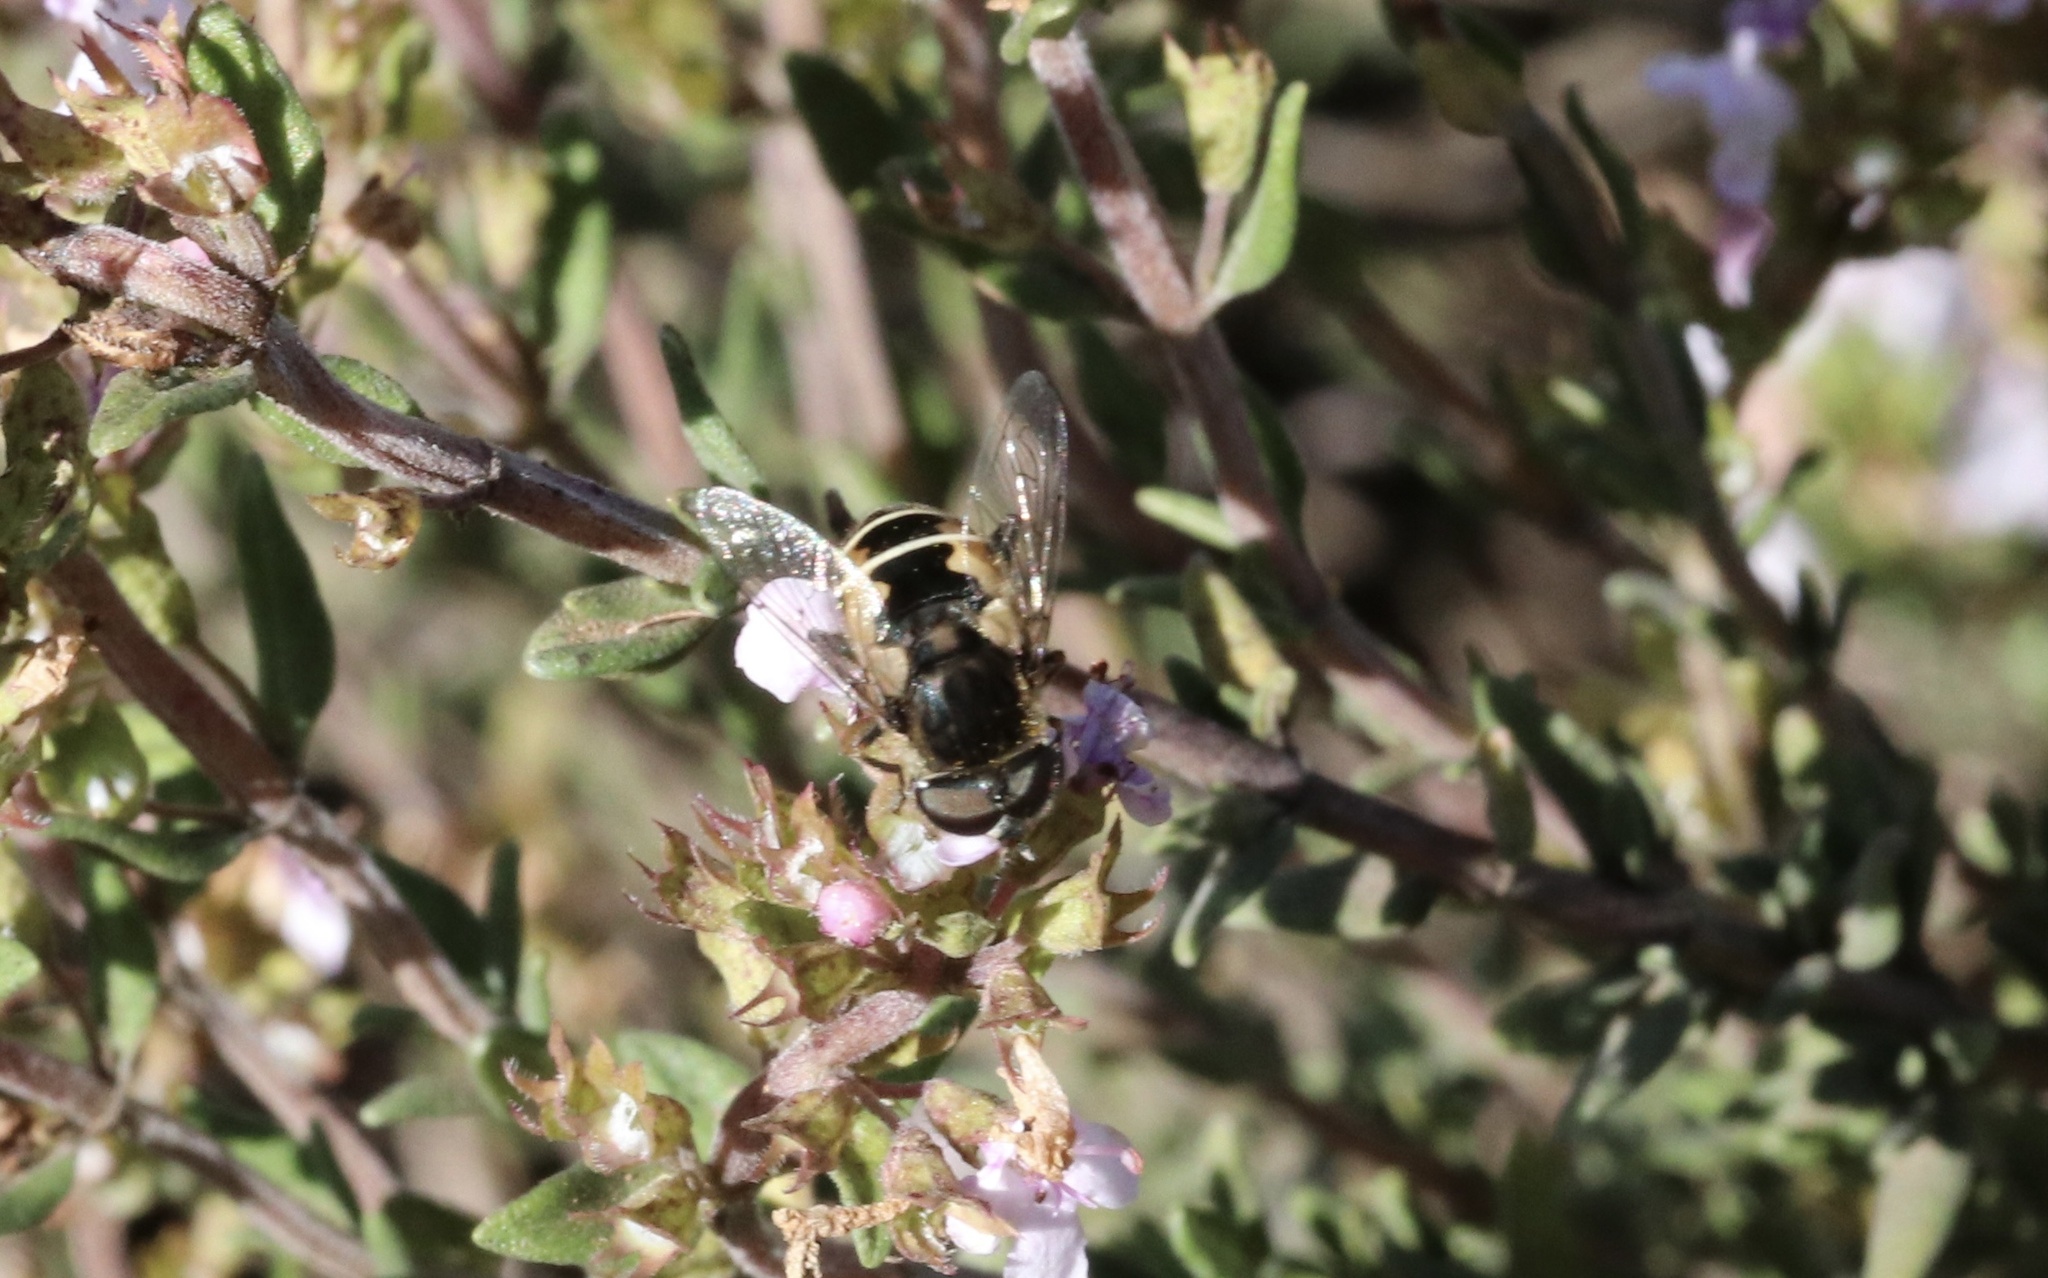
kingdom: Animalia
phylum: Arthropoda
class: Insecta
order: Diptera
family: Syrphidae
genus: Palpada
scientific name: Palpada meigenii
